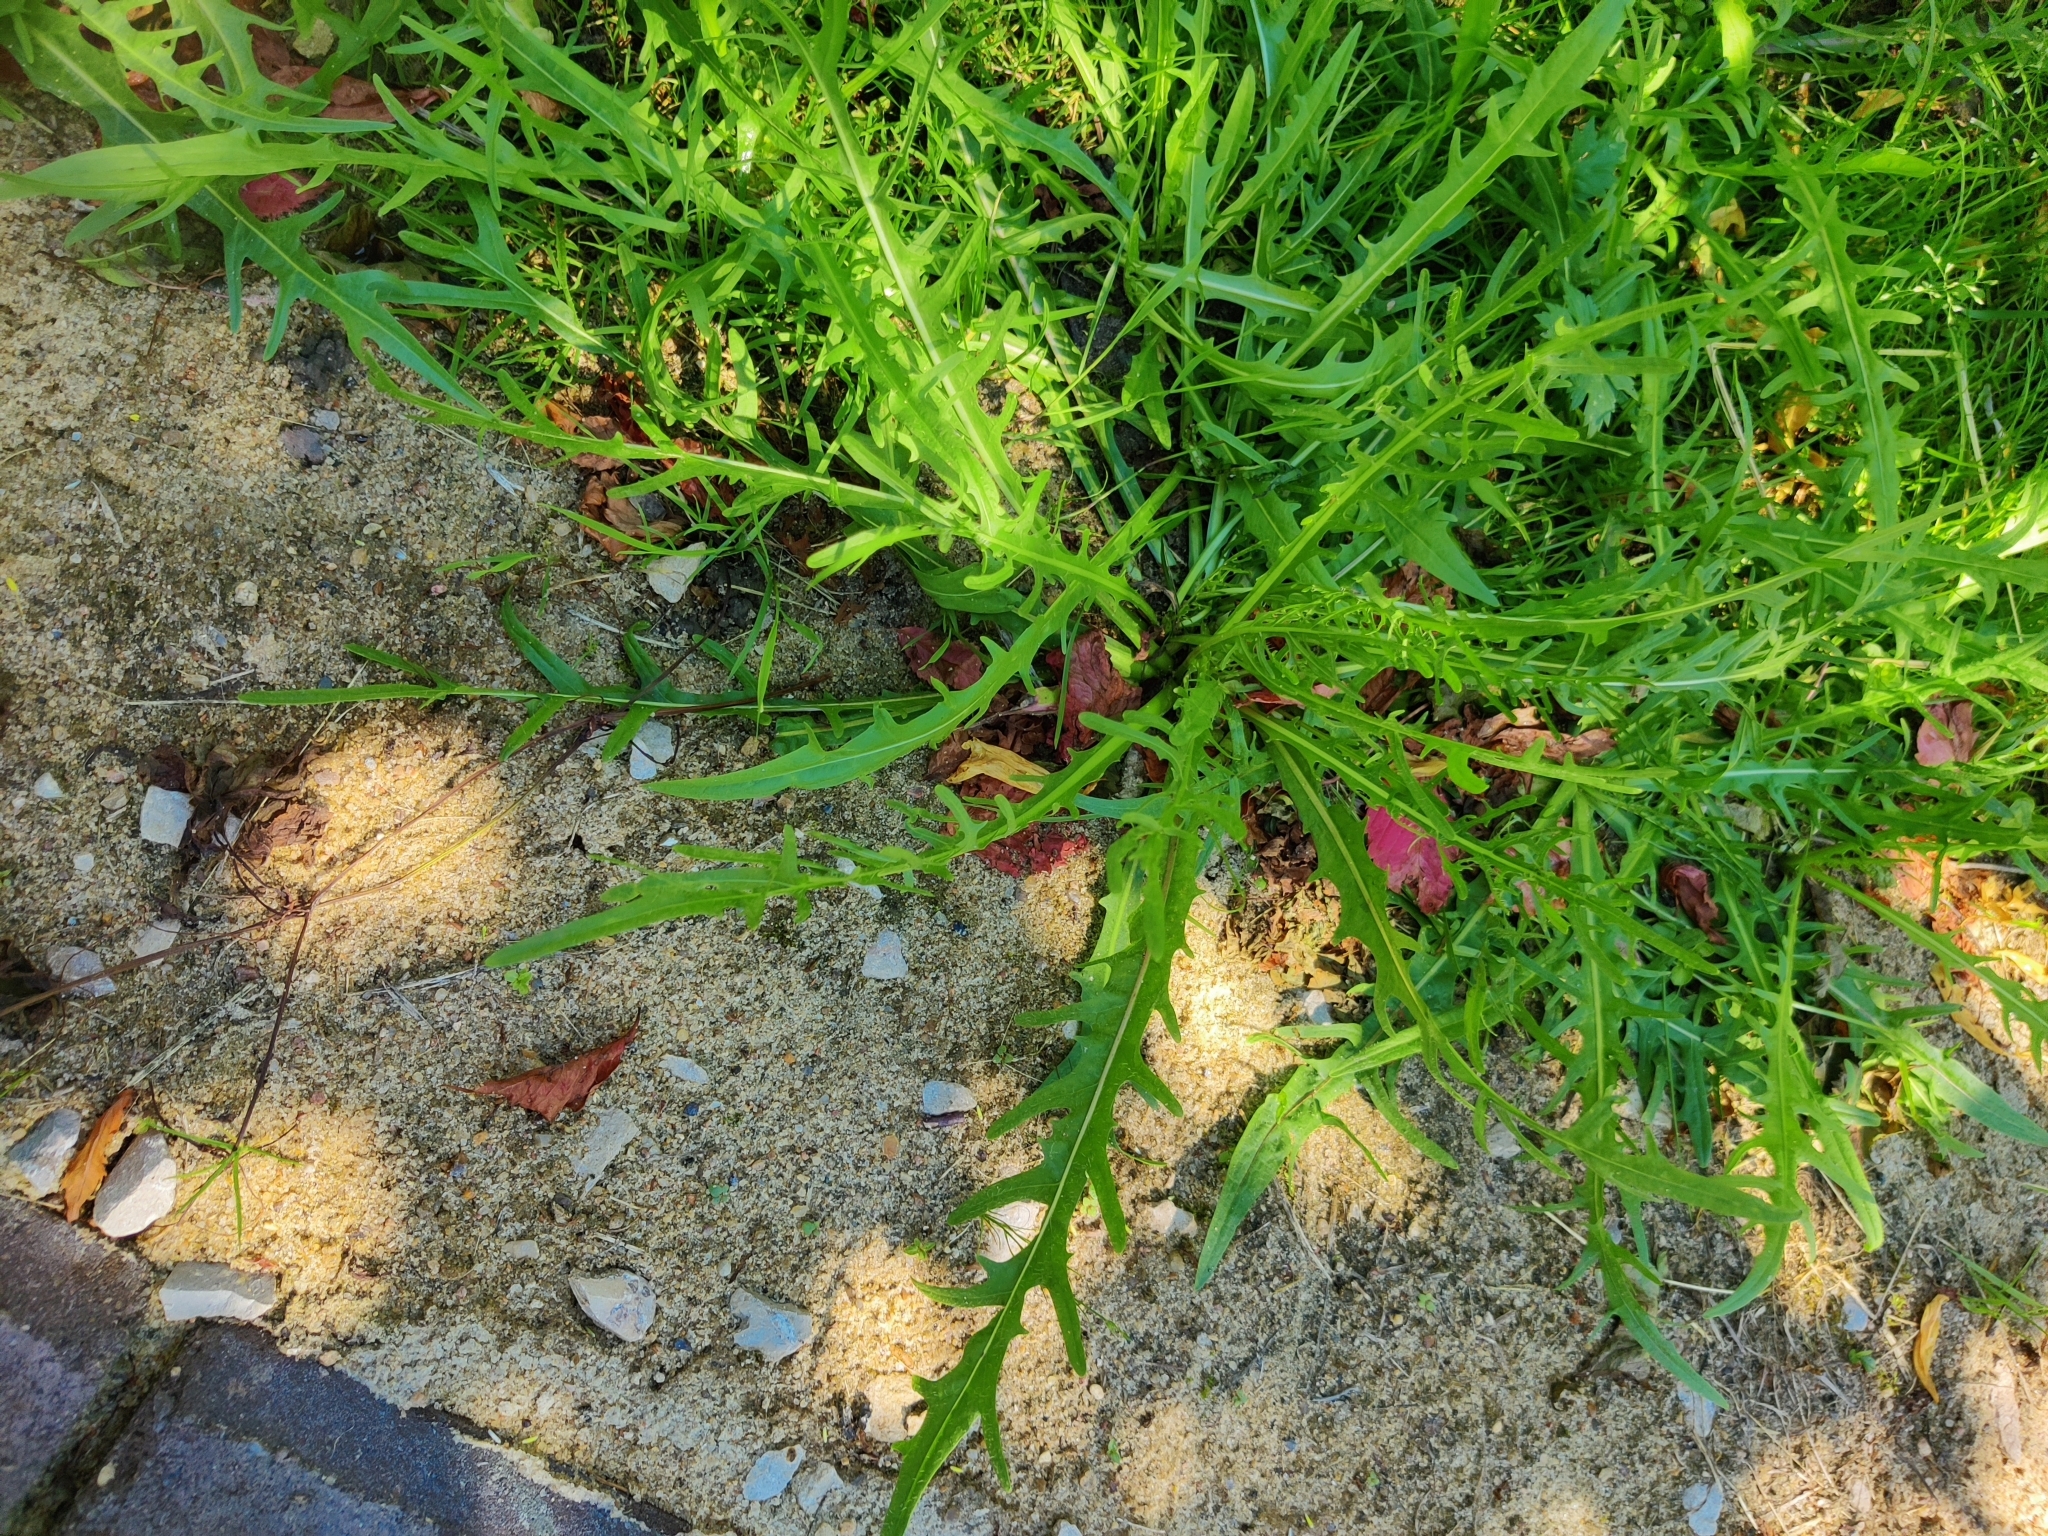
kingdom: Plantae
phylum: Tracheophyta
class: Magnoliopsida
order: Asterales
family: Asteraceae
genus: Scorzoneroides
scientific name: Scorzoneroides autumnalis
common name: Autumn hawkbit
